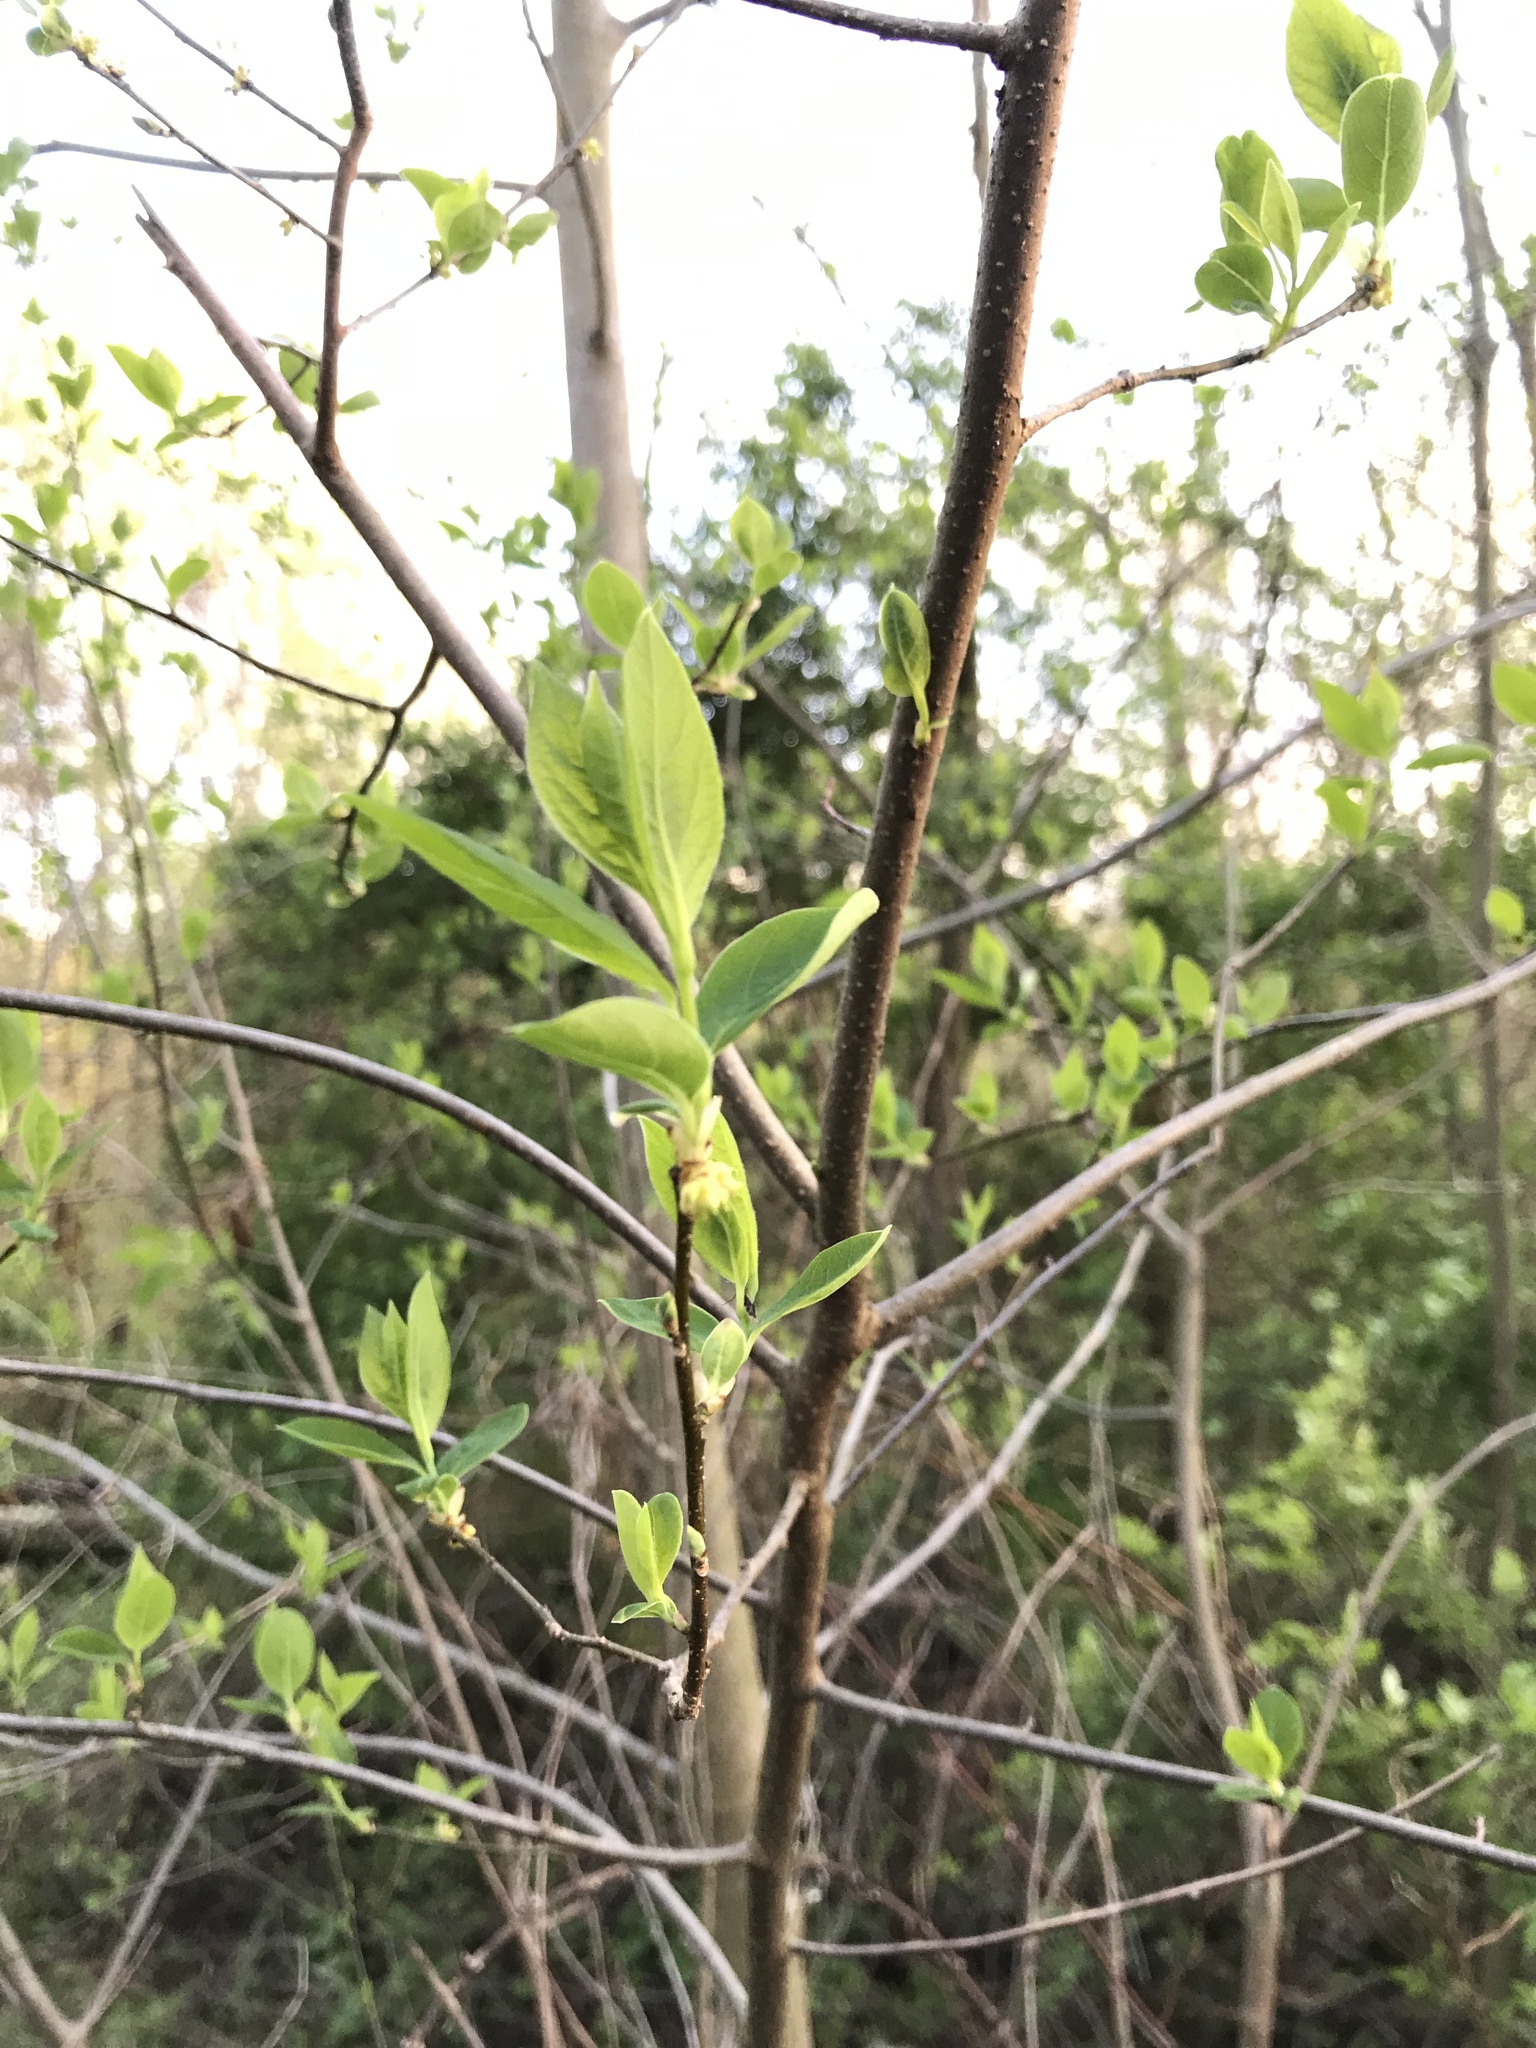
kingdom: Plantae
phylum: Tracheophyta
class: Magnoliopsida
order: Laurales
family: Lauraceae
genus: Lindera
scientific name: Lindera benzoin
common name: Spicebush
